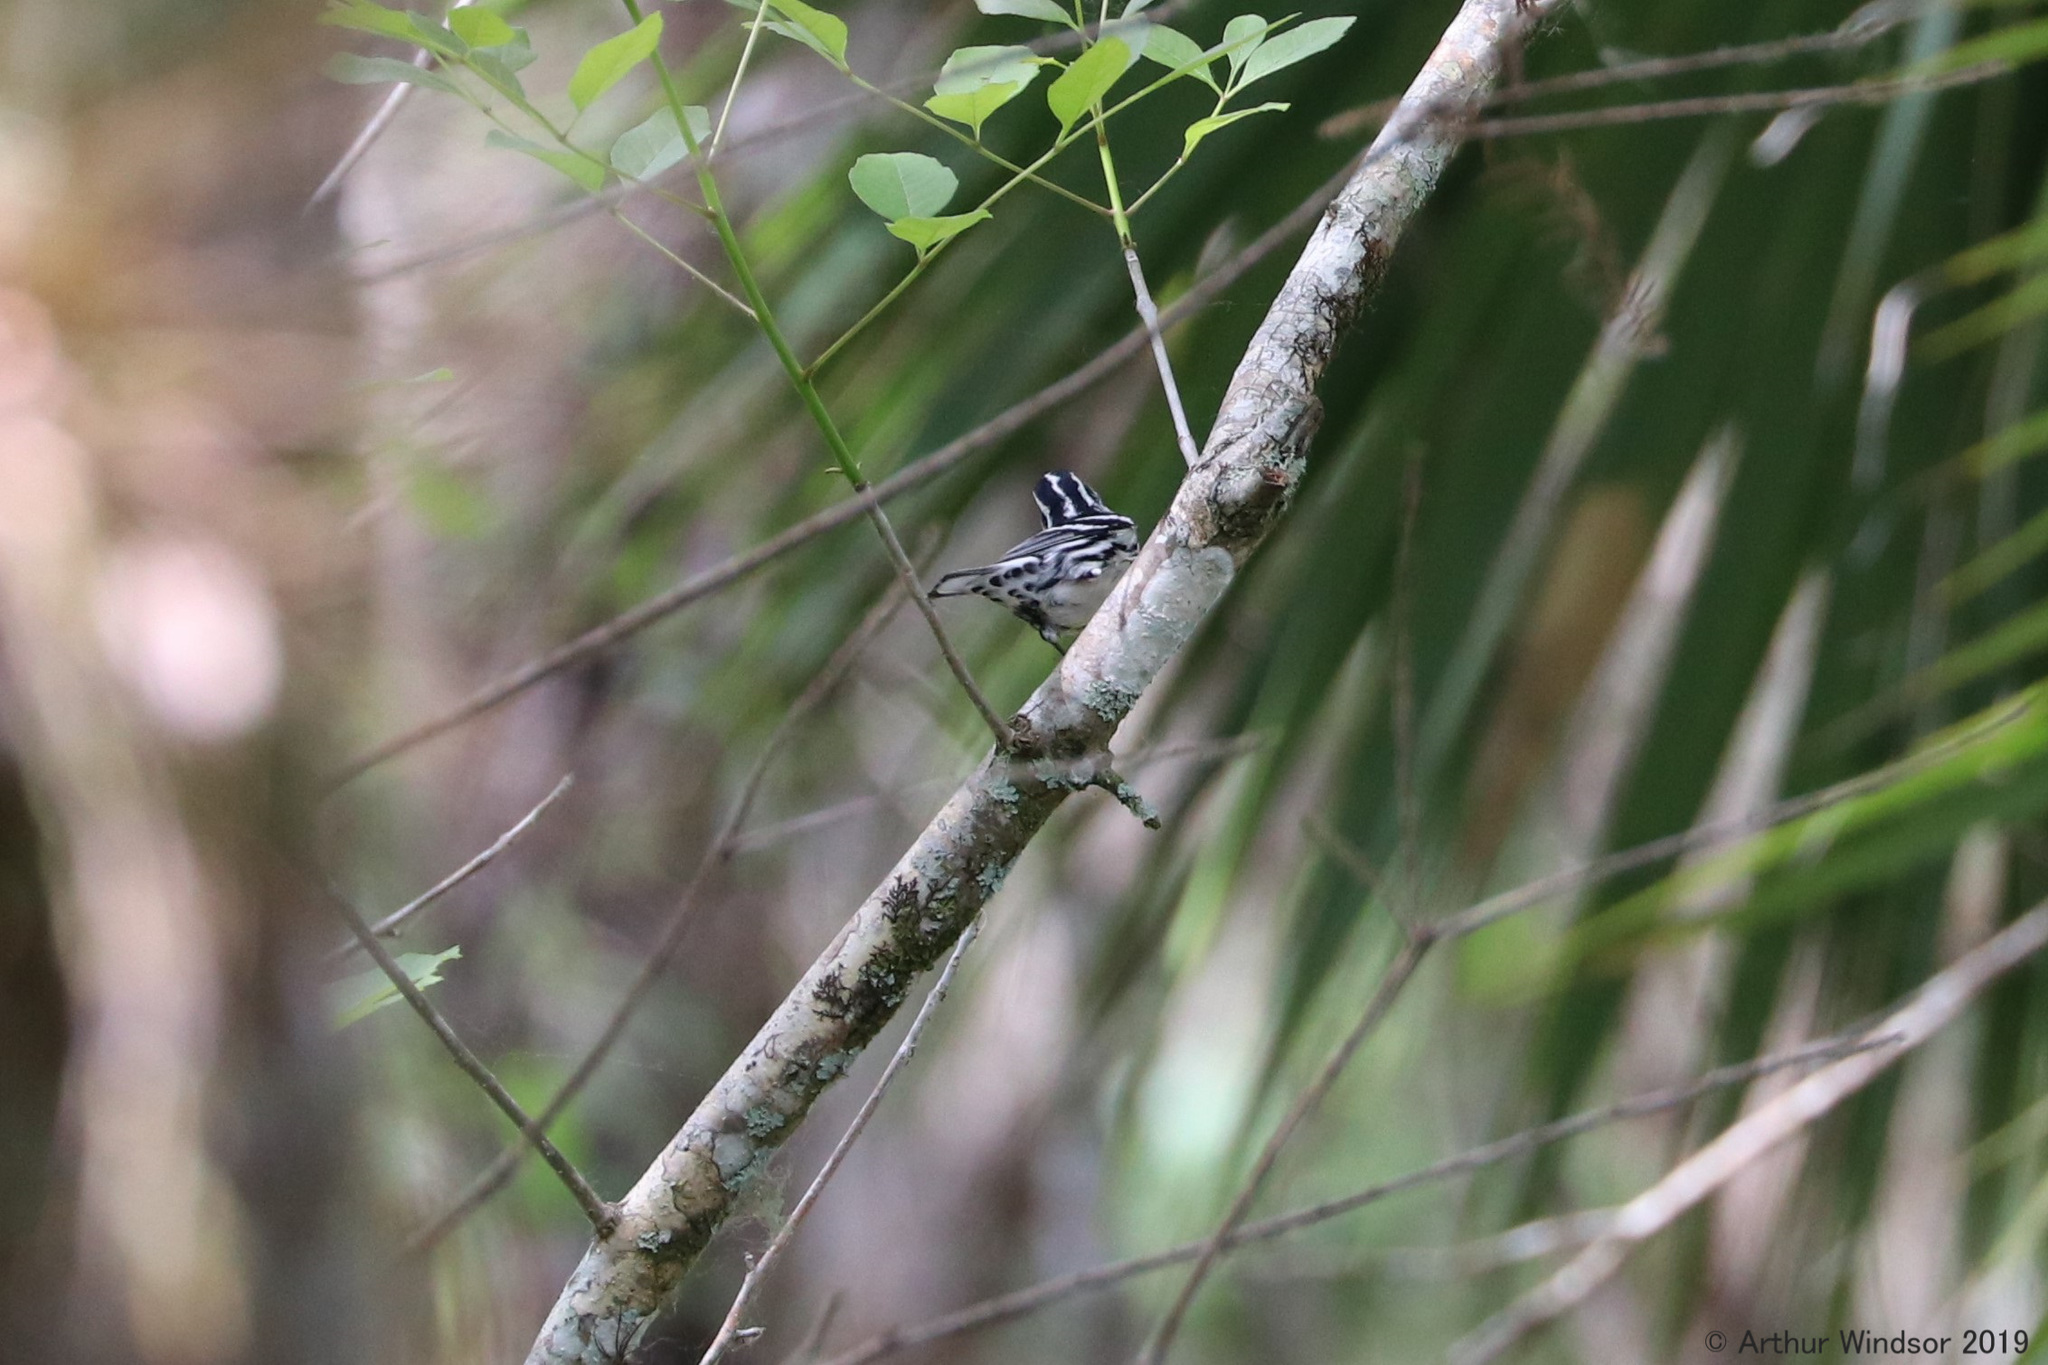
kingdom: Animalia
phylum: Chordata
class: Aves
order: Passeriformes
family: Parulidae
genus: Mniotilta
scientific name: Mniotilta varia
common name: Black-and-white warbler
